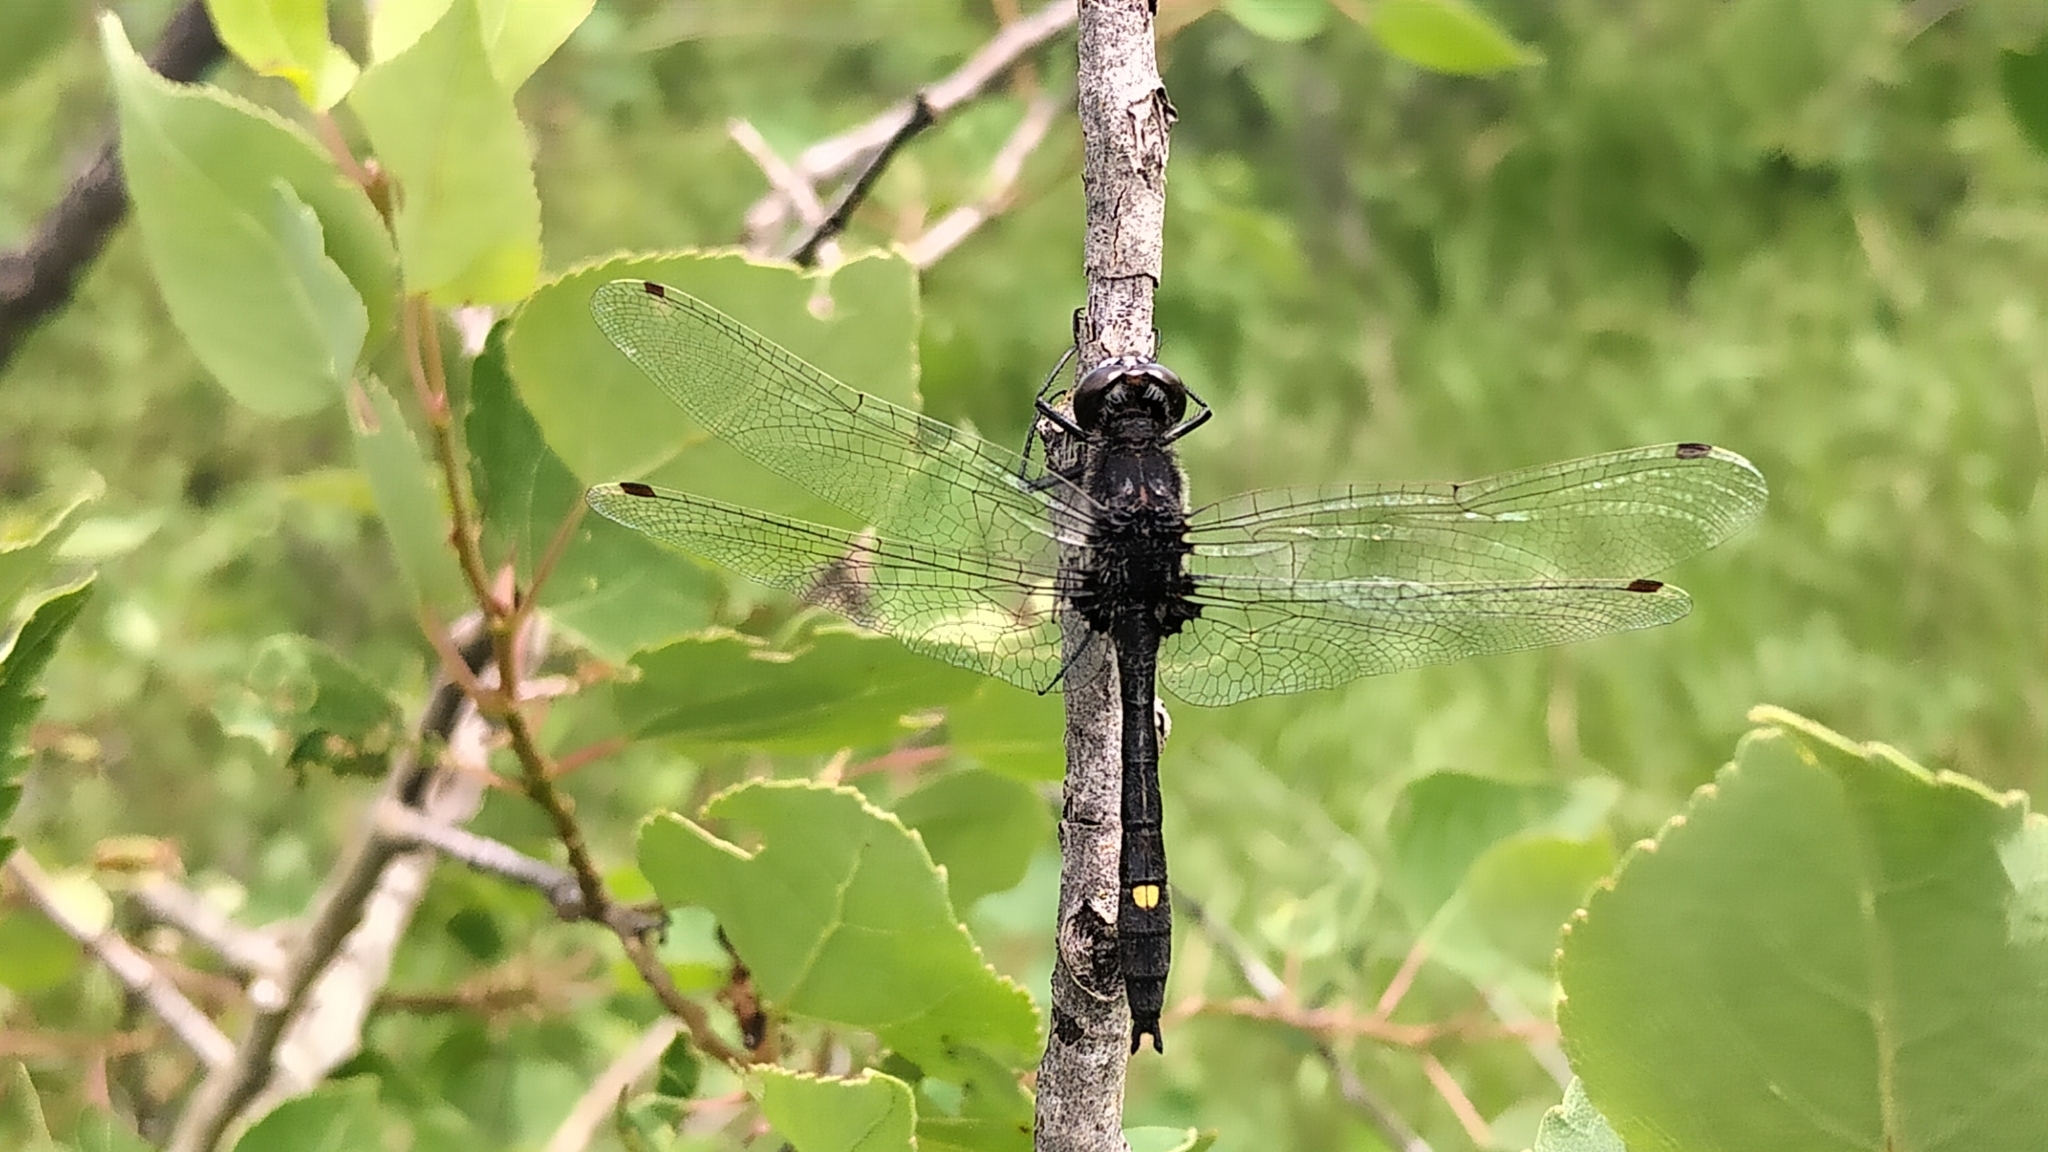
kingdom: Animalia
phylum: Arthropoda
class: Insecta
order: Odonata
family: Libellulidae
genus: Leucorrhinia
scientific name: Leucorrhinia intacta
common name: Dot-tailed whiteface
